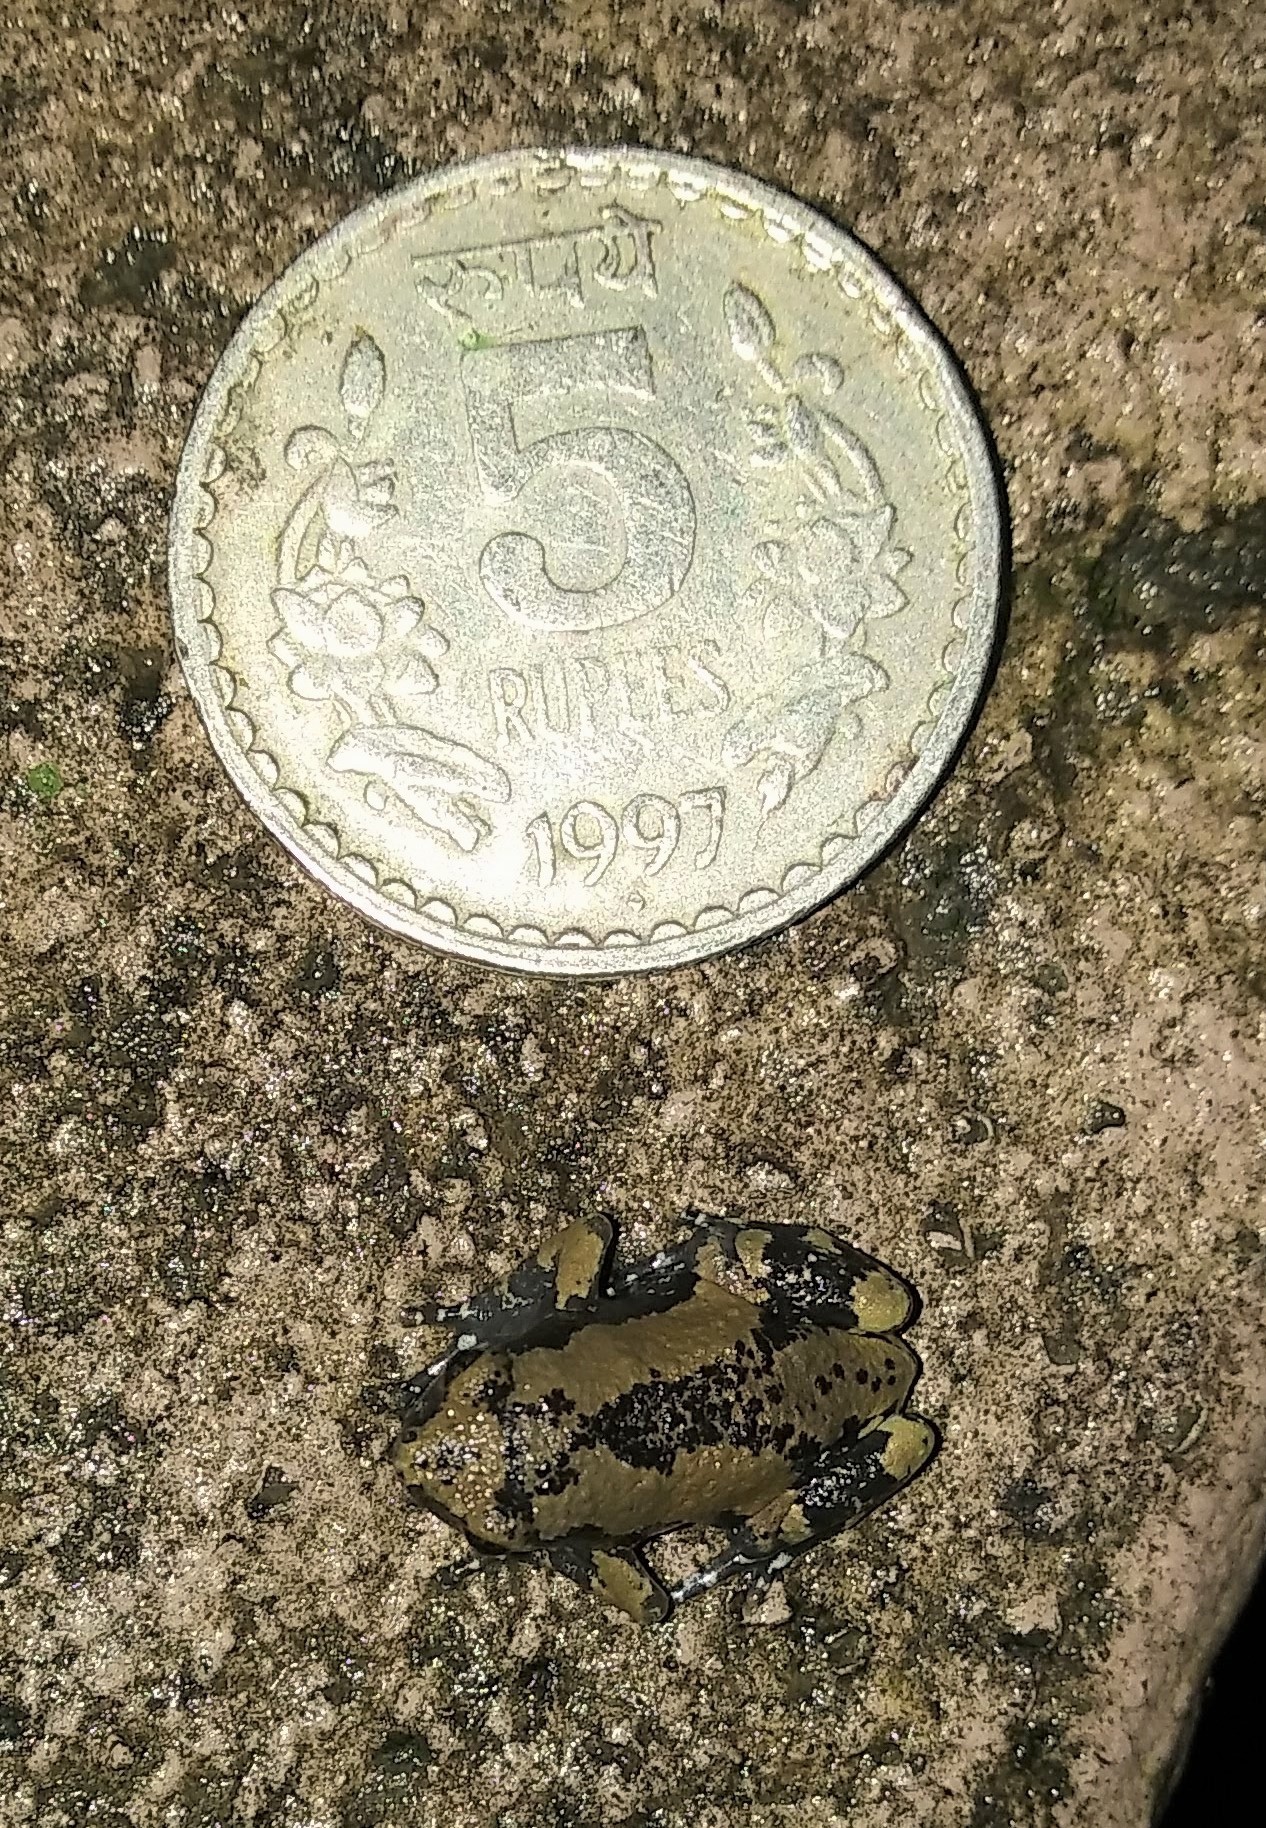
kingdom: Animalia
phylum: Chordata
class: Amphibia
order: Anura
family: Microhylidae
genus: Uperodon
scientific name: Uperodon triangularis
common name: Malabar dot frog
